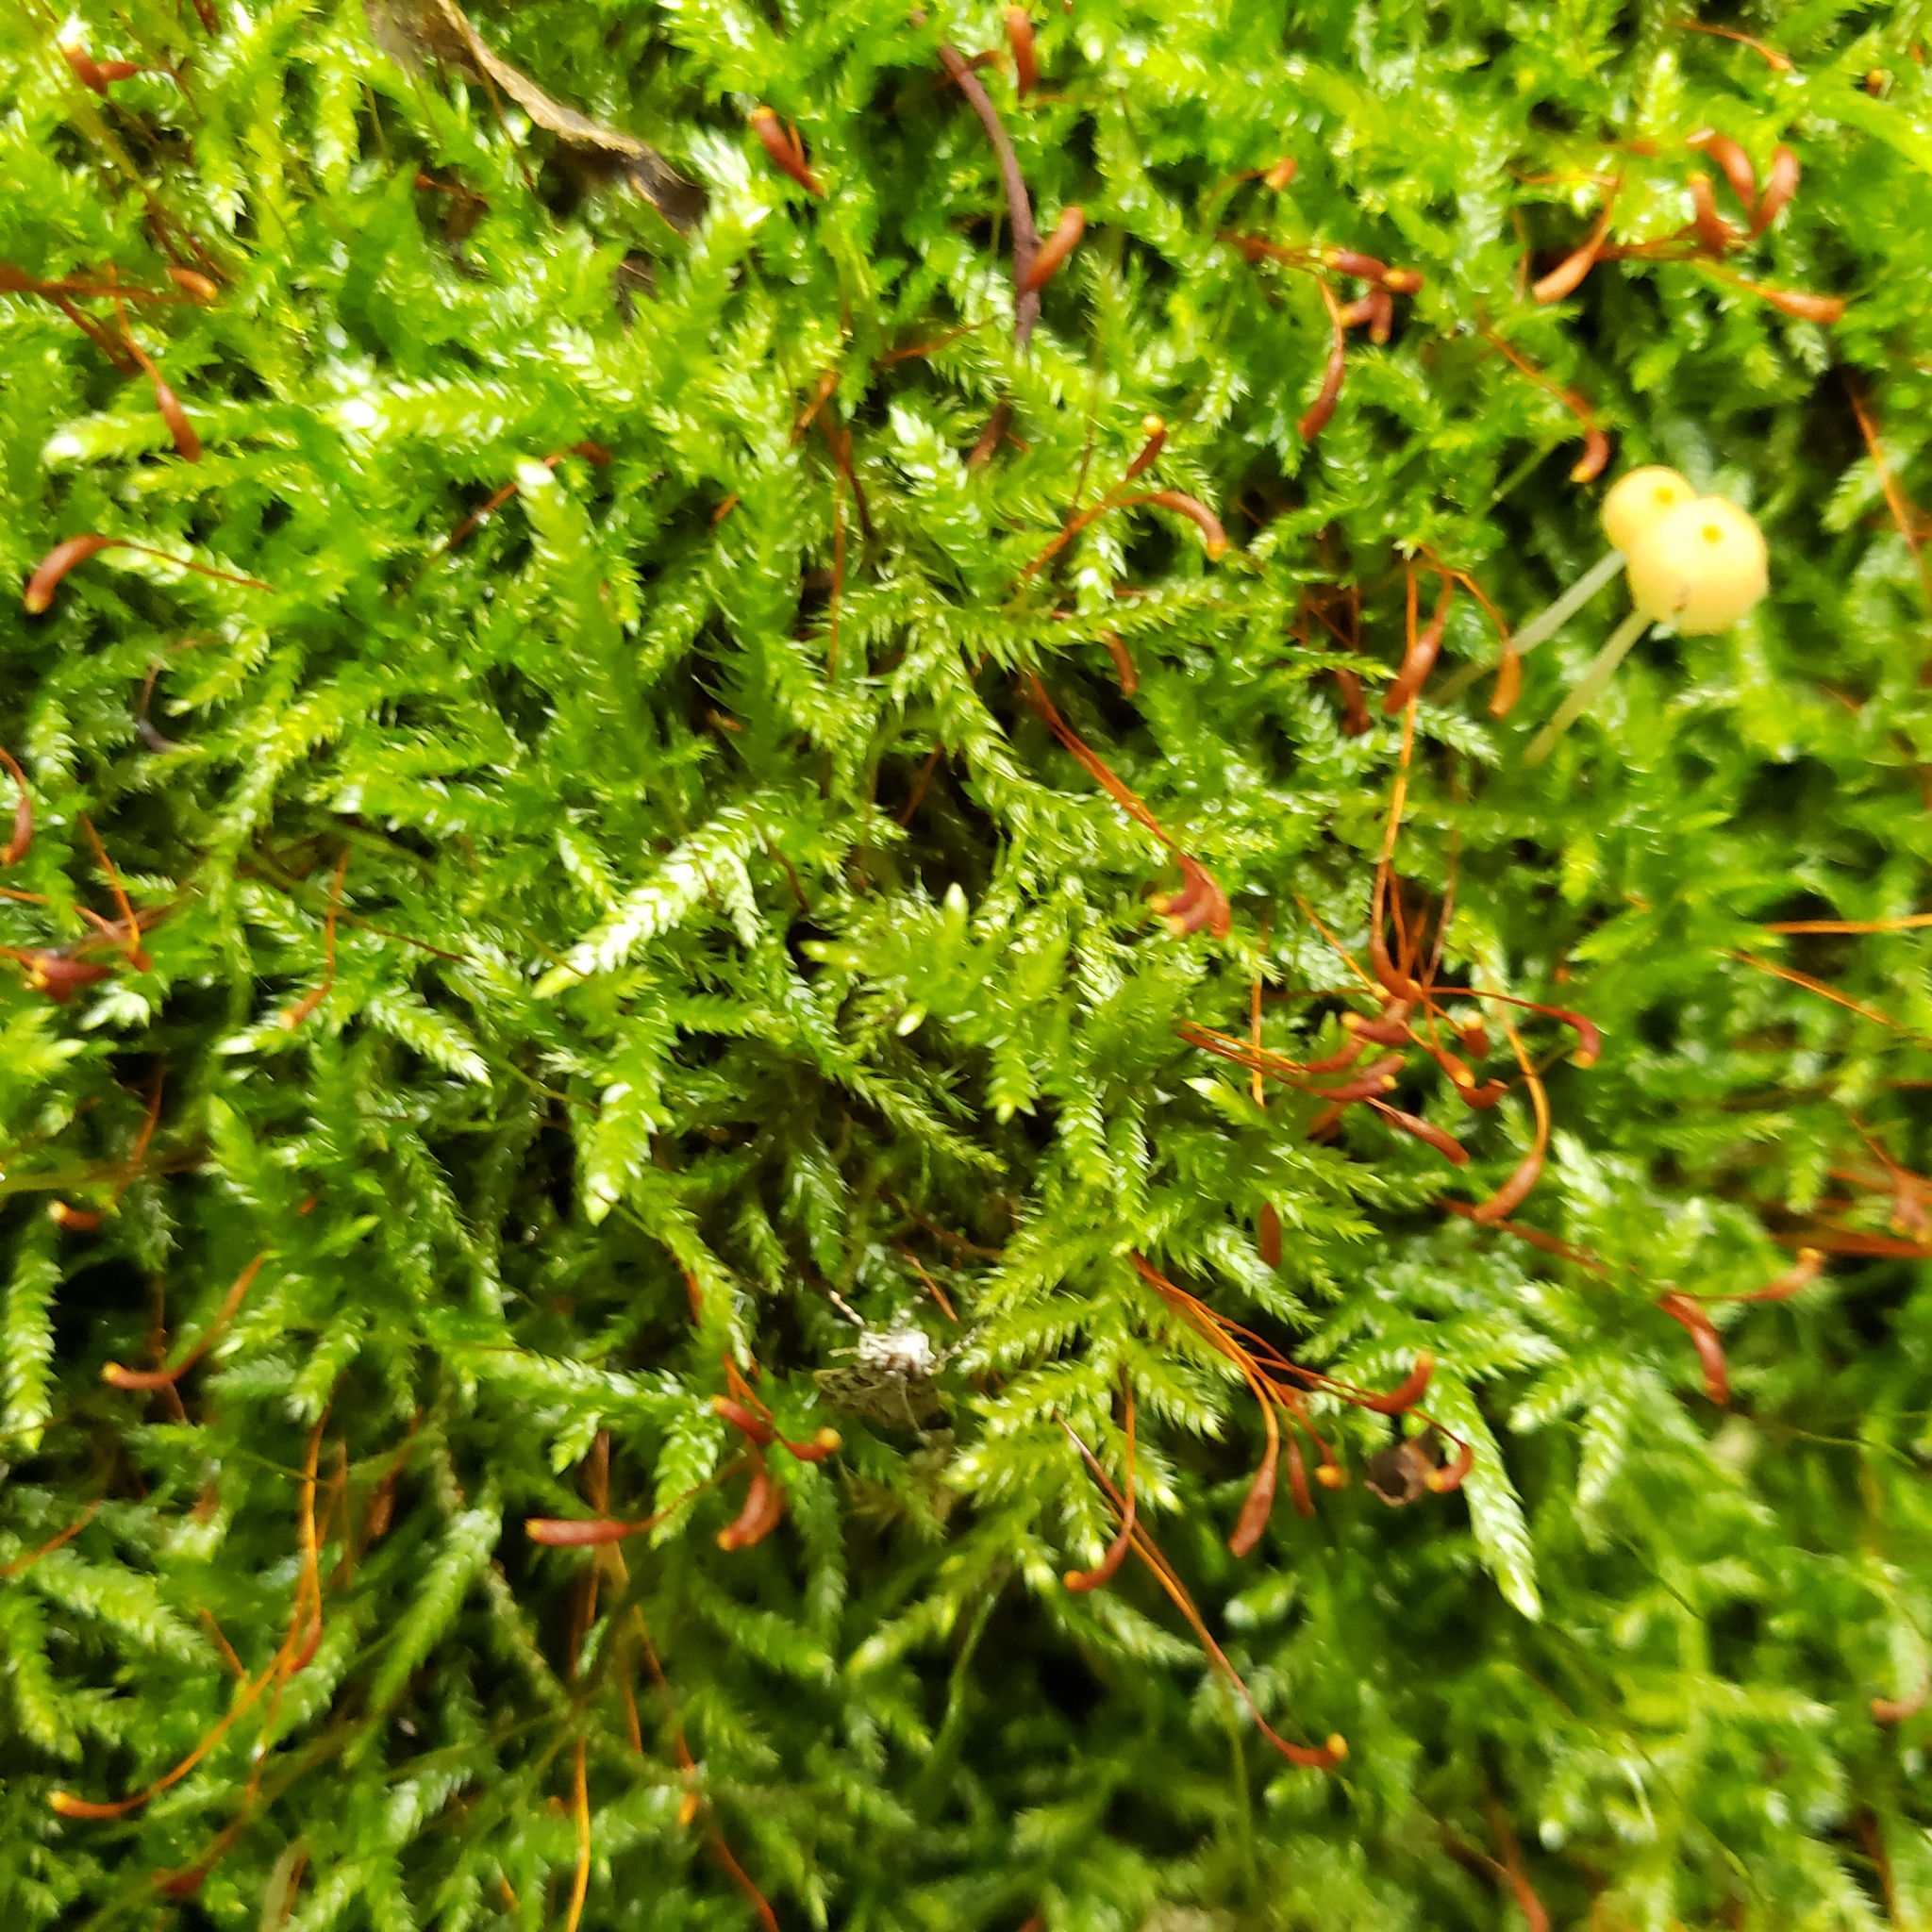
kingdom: Plantae
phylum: Bryophyta
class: Bryopsida
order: Hypnales
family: Callicladiaceae
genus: Callicladium
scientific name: Callicladium haldanianum
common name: Beautiful branch moss
